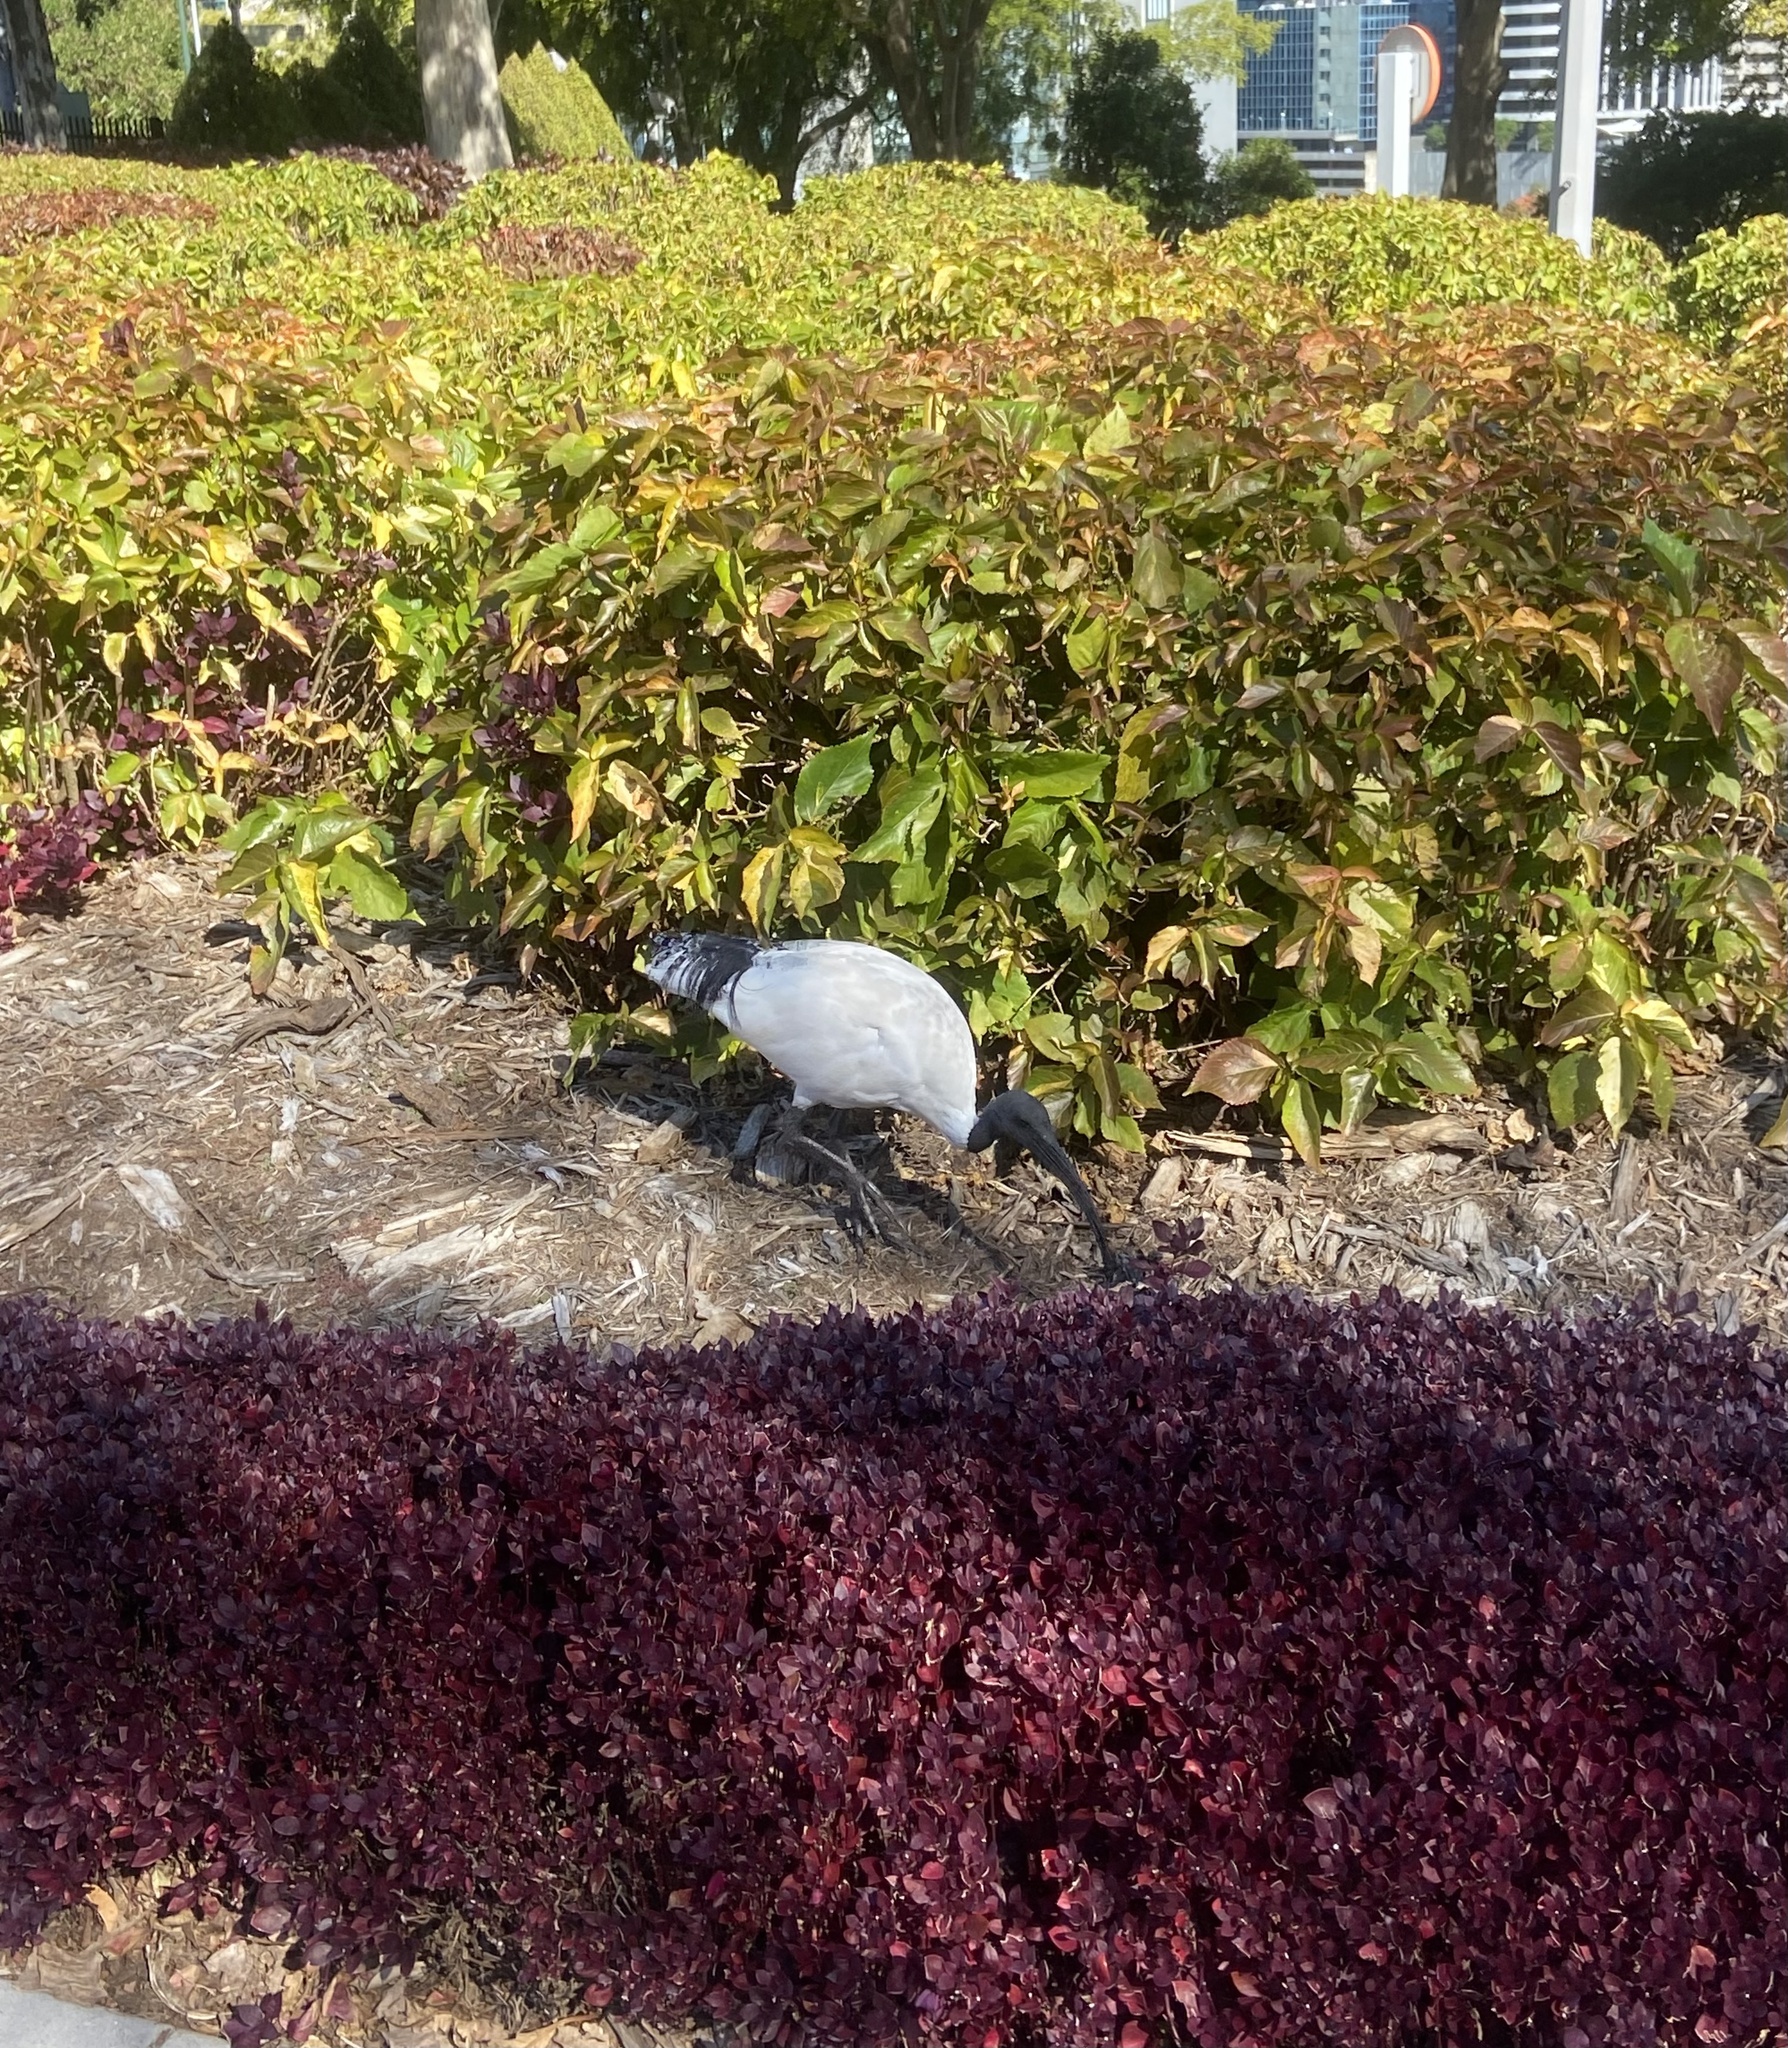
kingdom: Animalia
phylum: Chordata
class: Aves
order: Pelecaniformes
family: Threskiornithidae
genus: Threskiornis
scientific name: Threskiornis molucca
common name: Australian white ibis
